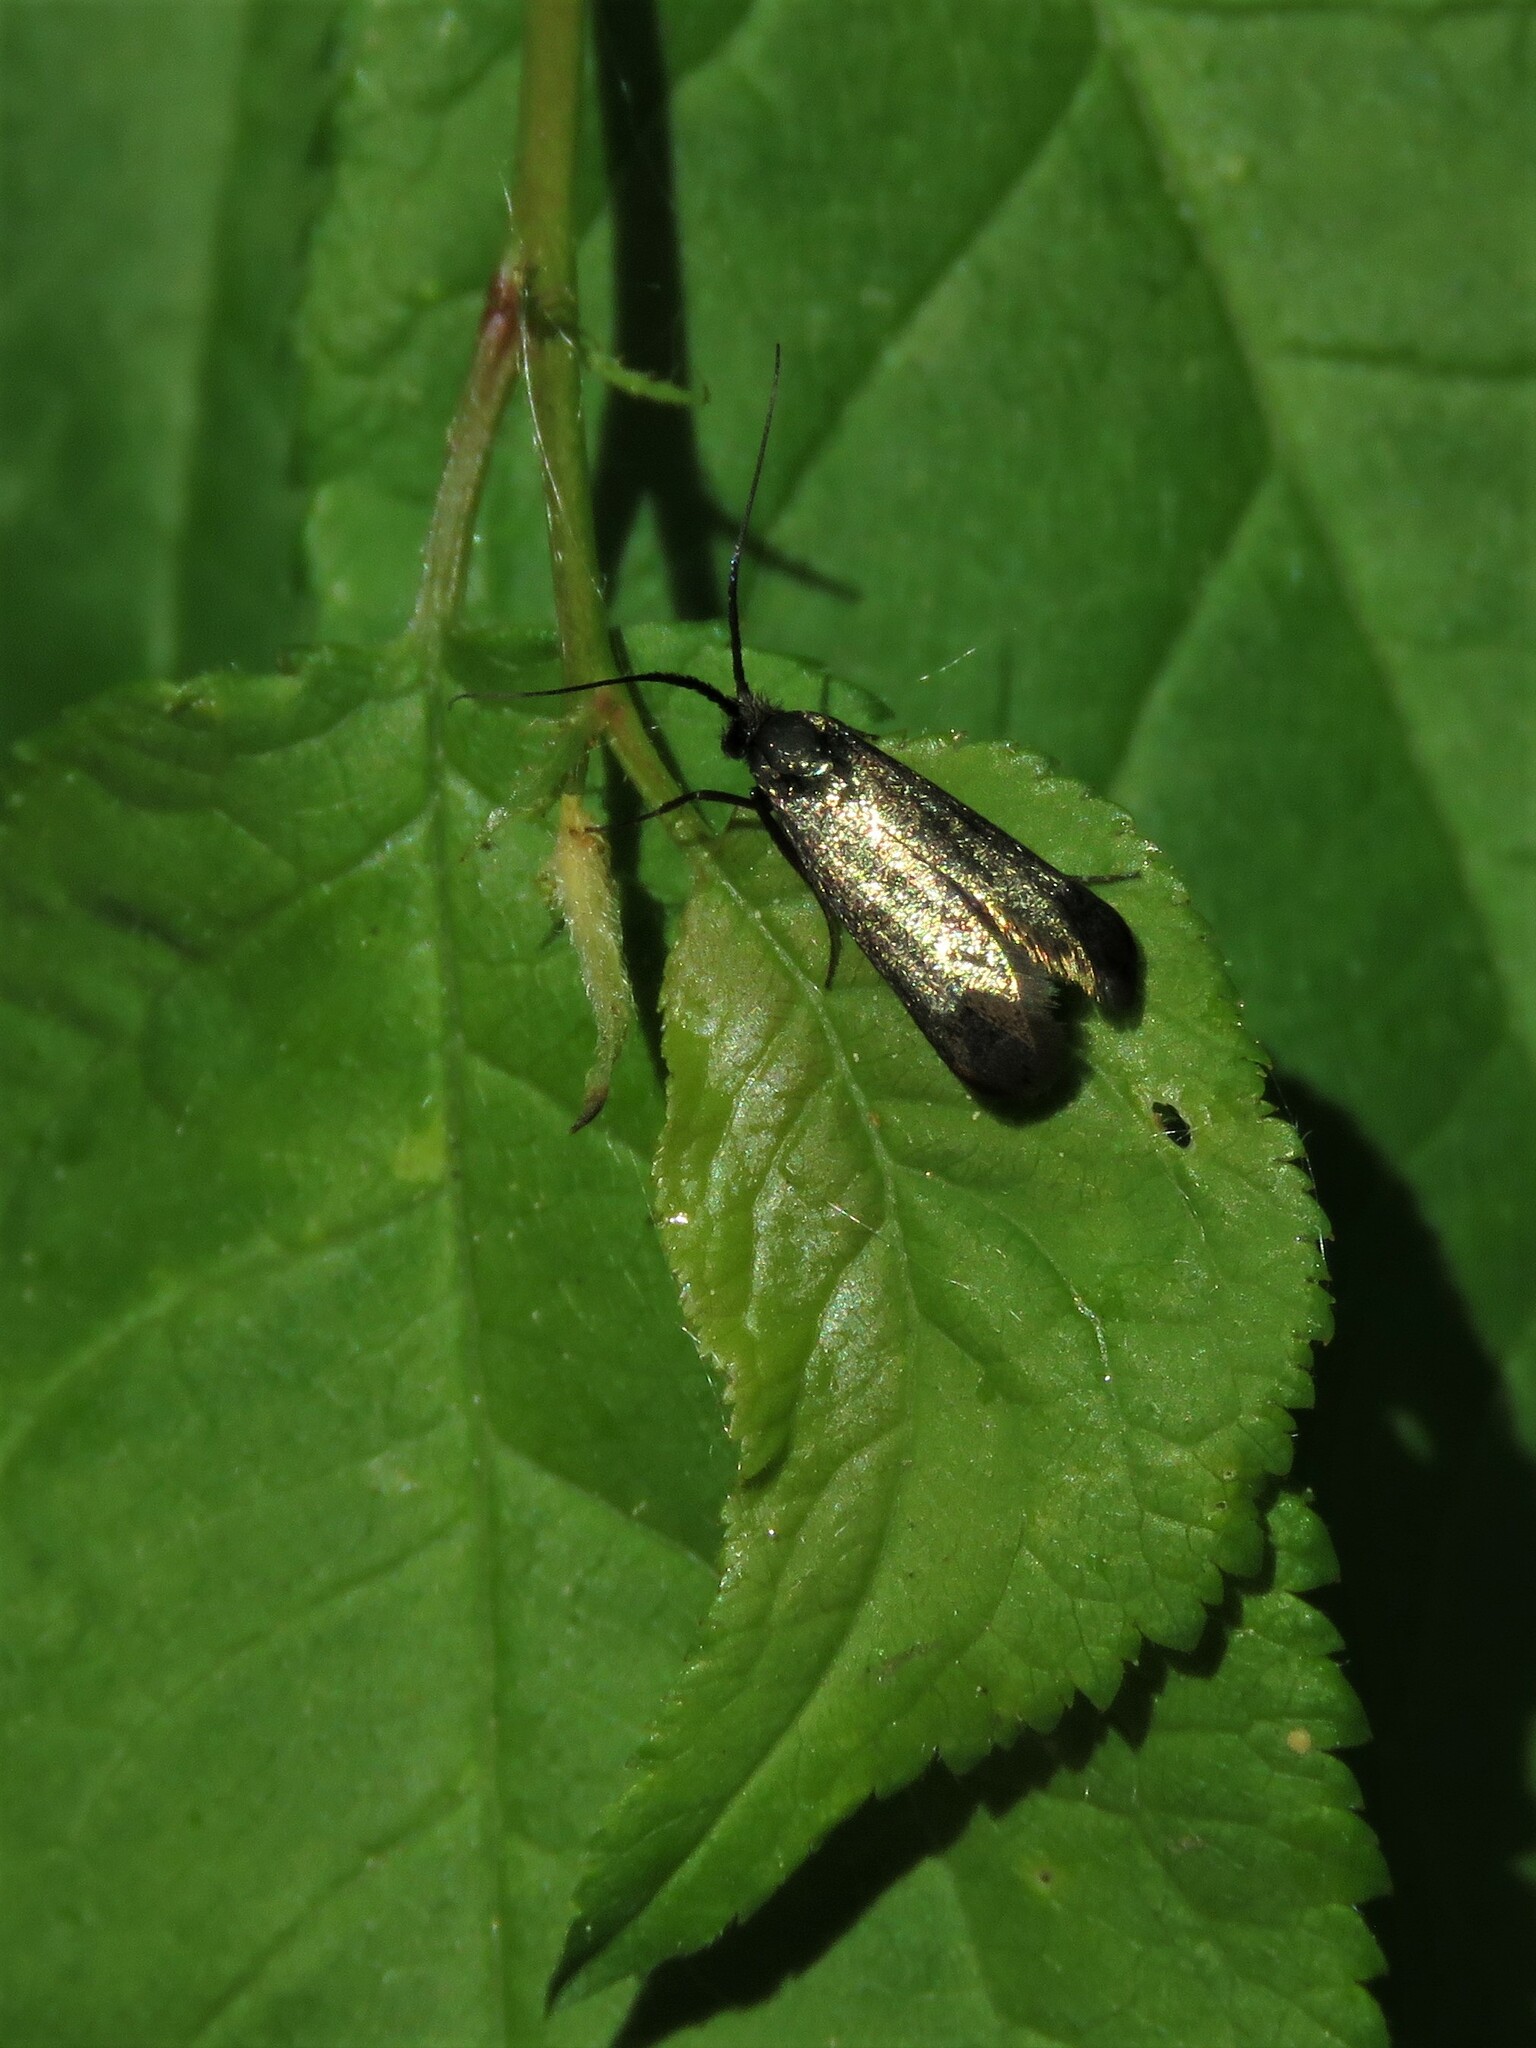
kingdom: Animalia
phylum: Arthropoda
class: Insecta
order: Lepidoptera
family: Adelidae
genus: Adela
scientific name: Adela viridella
